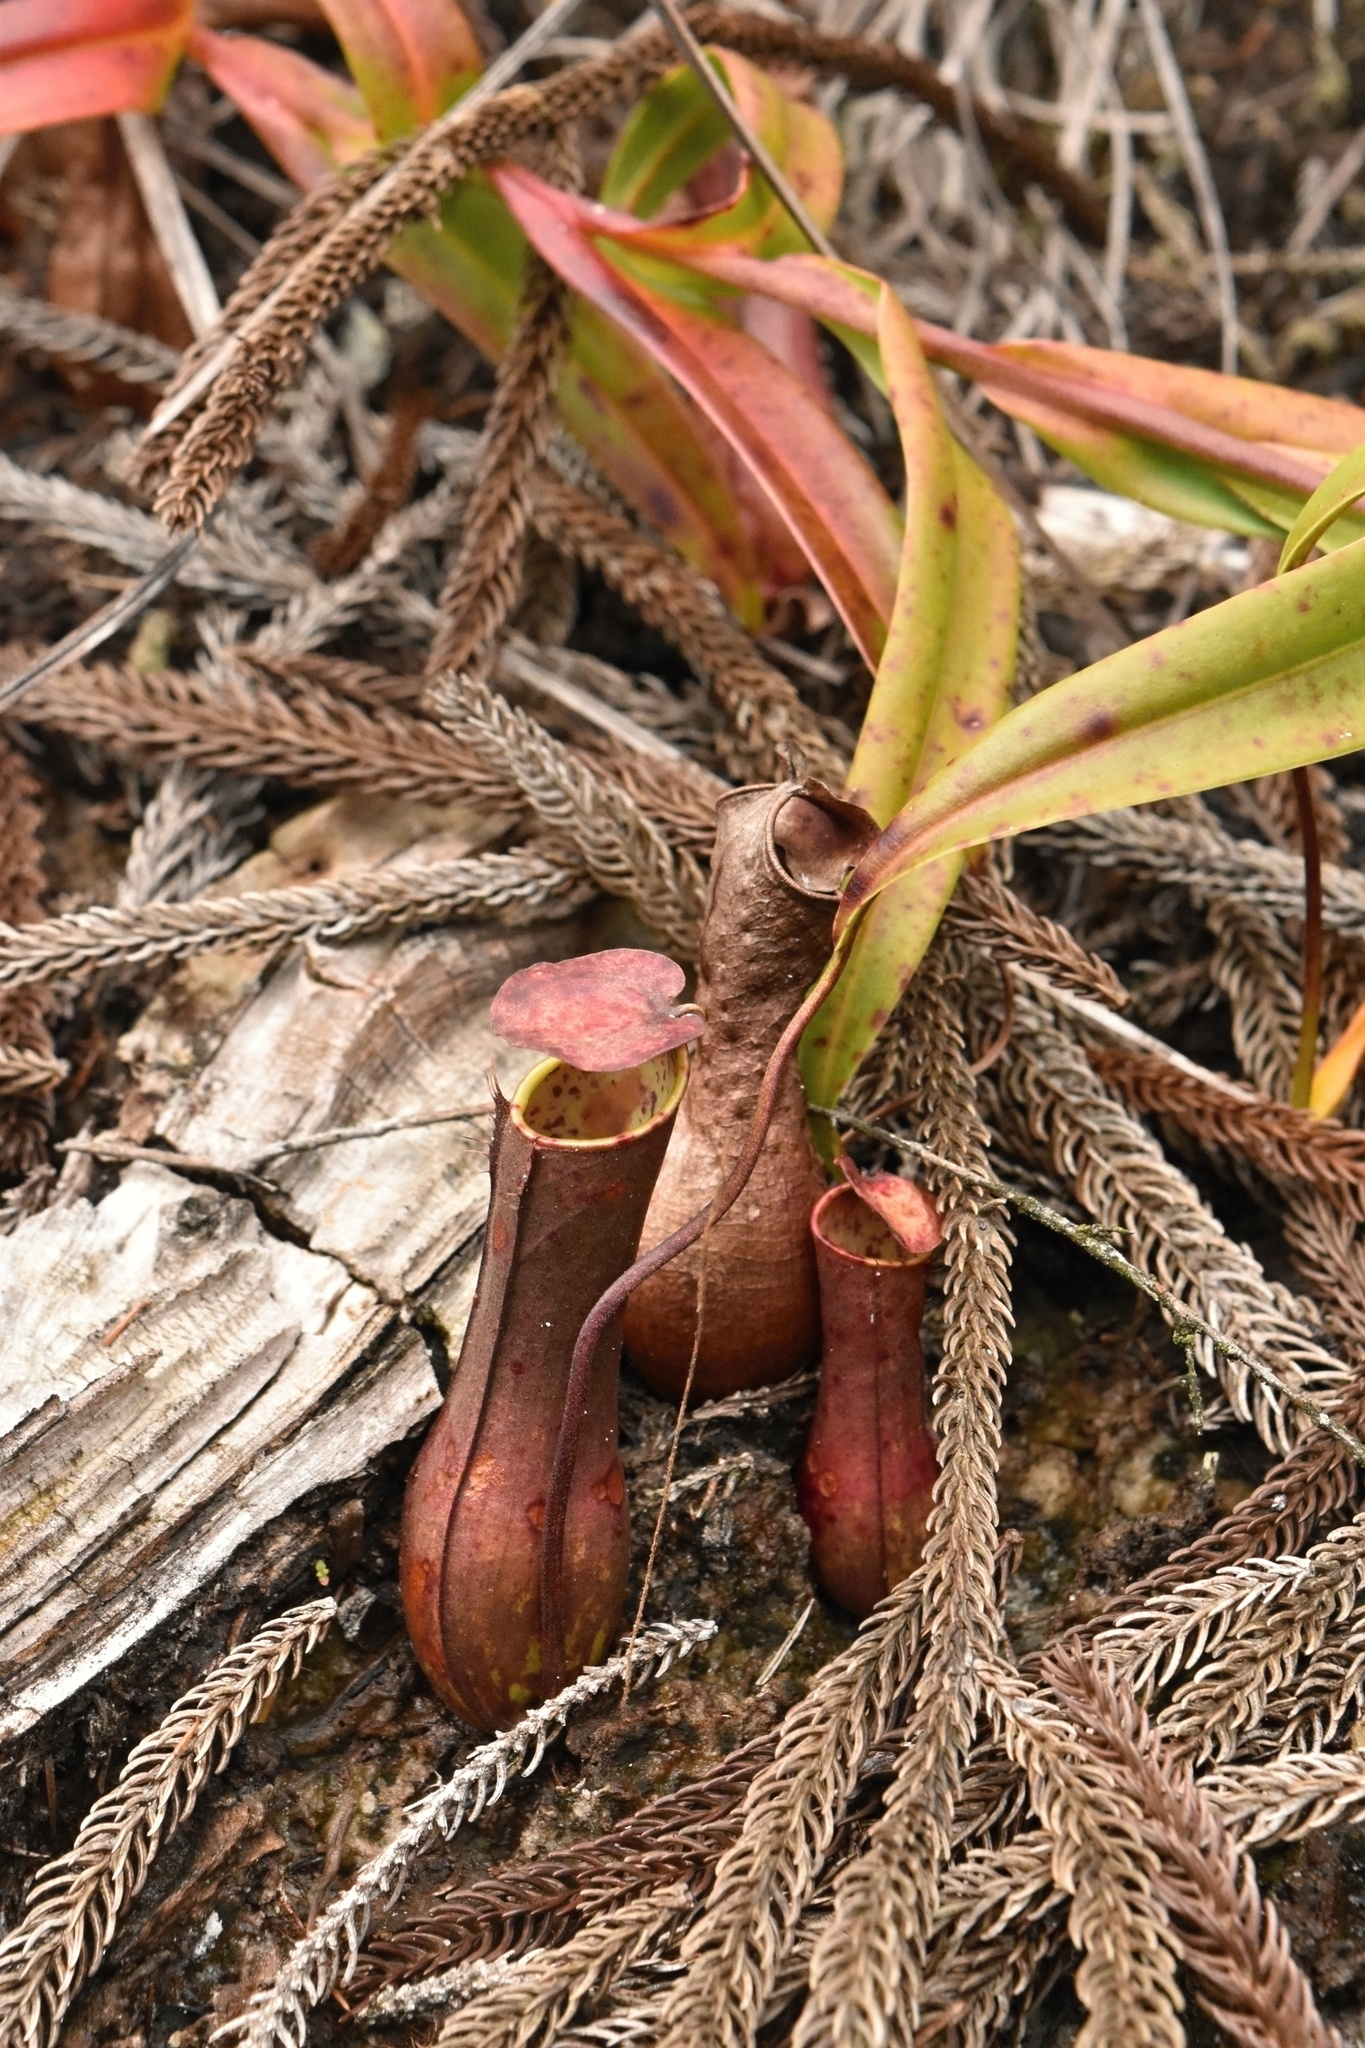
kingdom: Plantae
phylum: Tracheophyta
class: Magnoliopsida
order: Caryophyllales
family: Nepenthaceae
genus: Nepenthes
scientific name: Nepenthes gracilis
